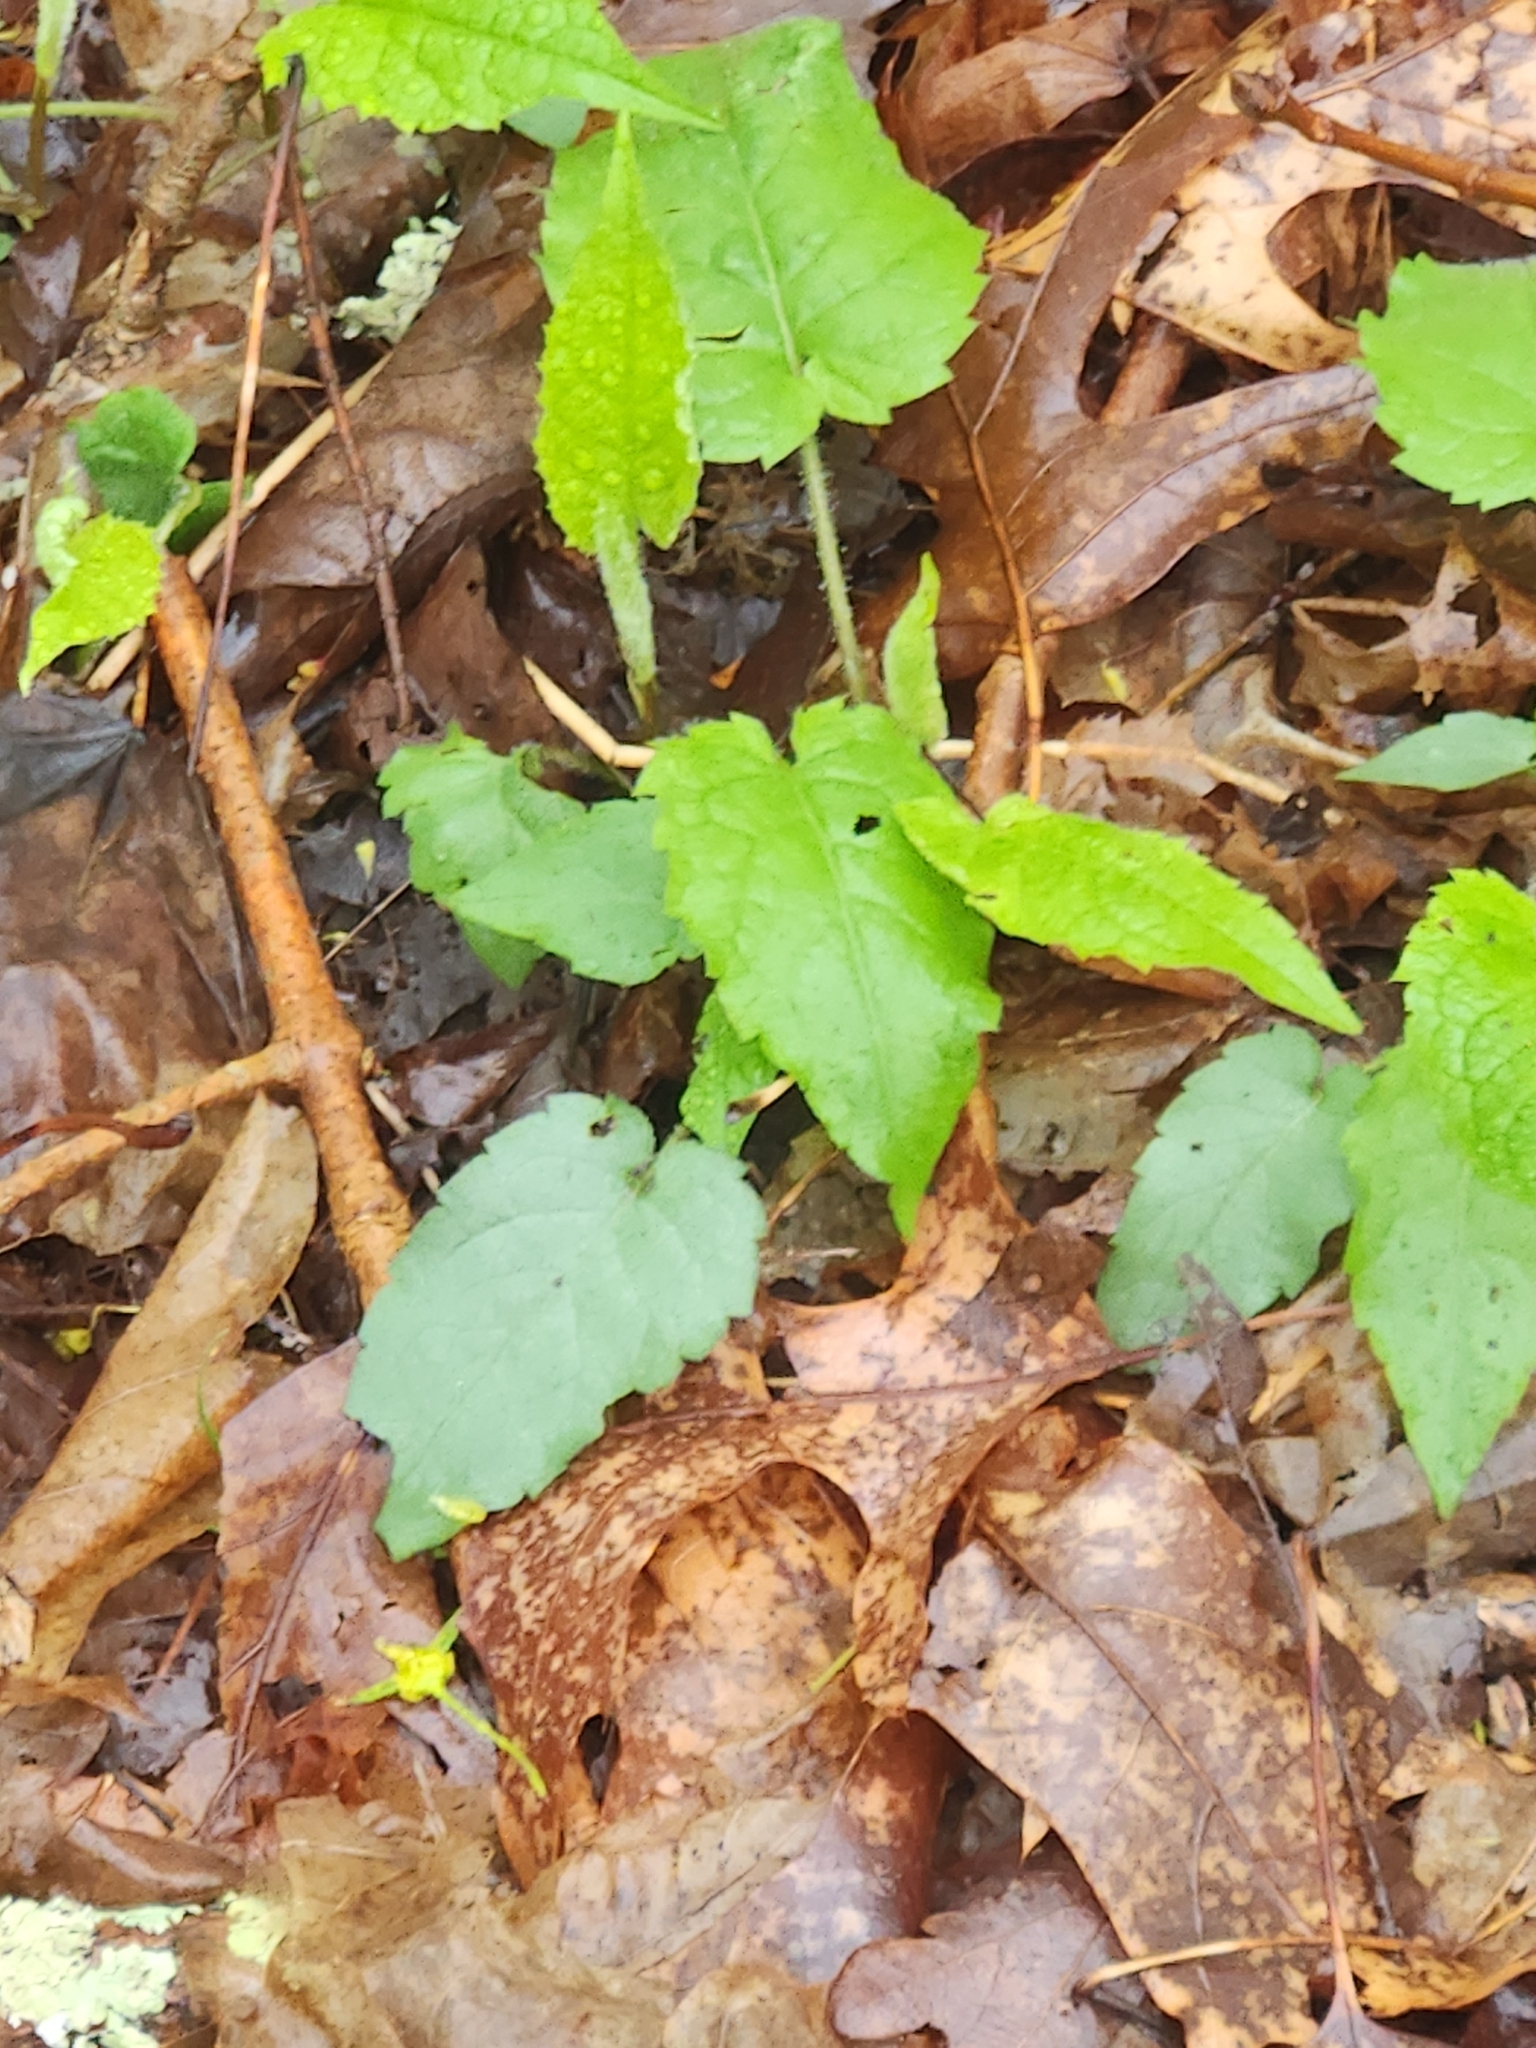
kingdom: Plantae
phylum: Tracheophyta
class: Magnoliopsida
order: Asterales
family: Asteraceae
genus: Eurybia
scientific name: Eurybia divaricata
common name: White wood aster
